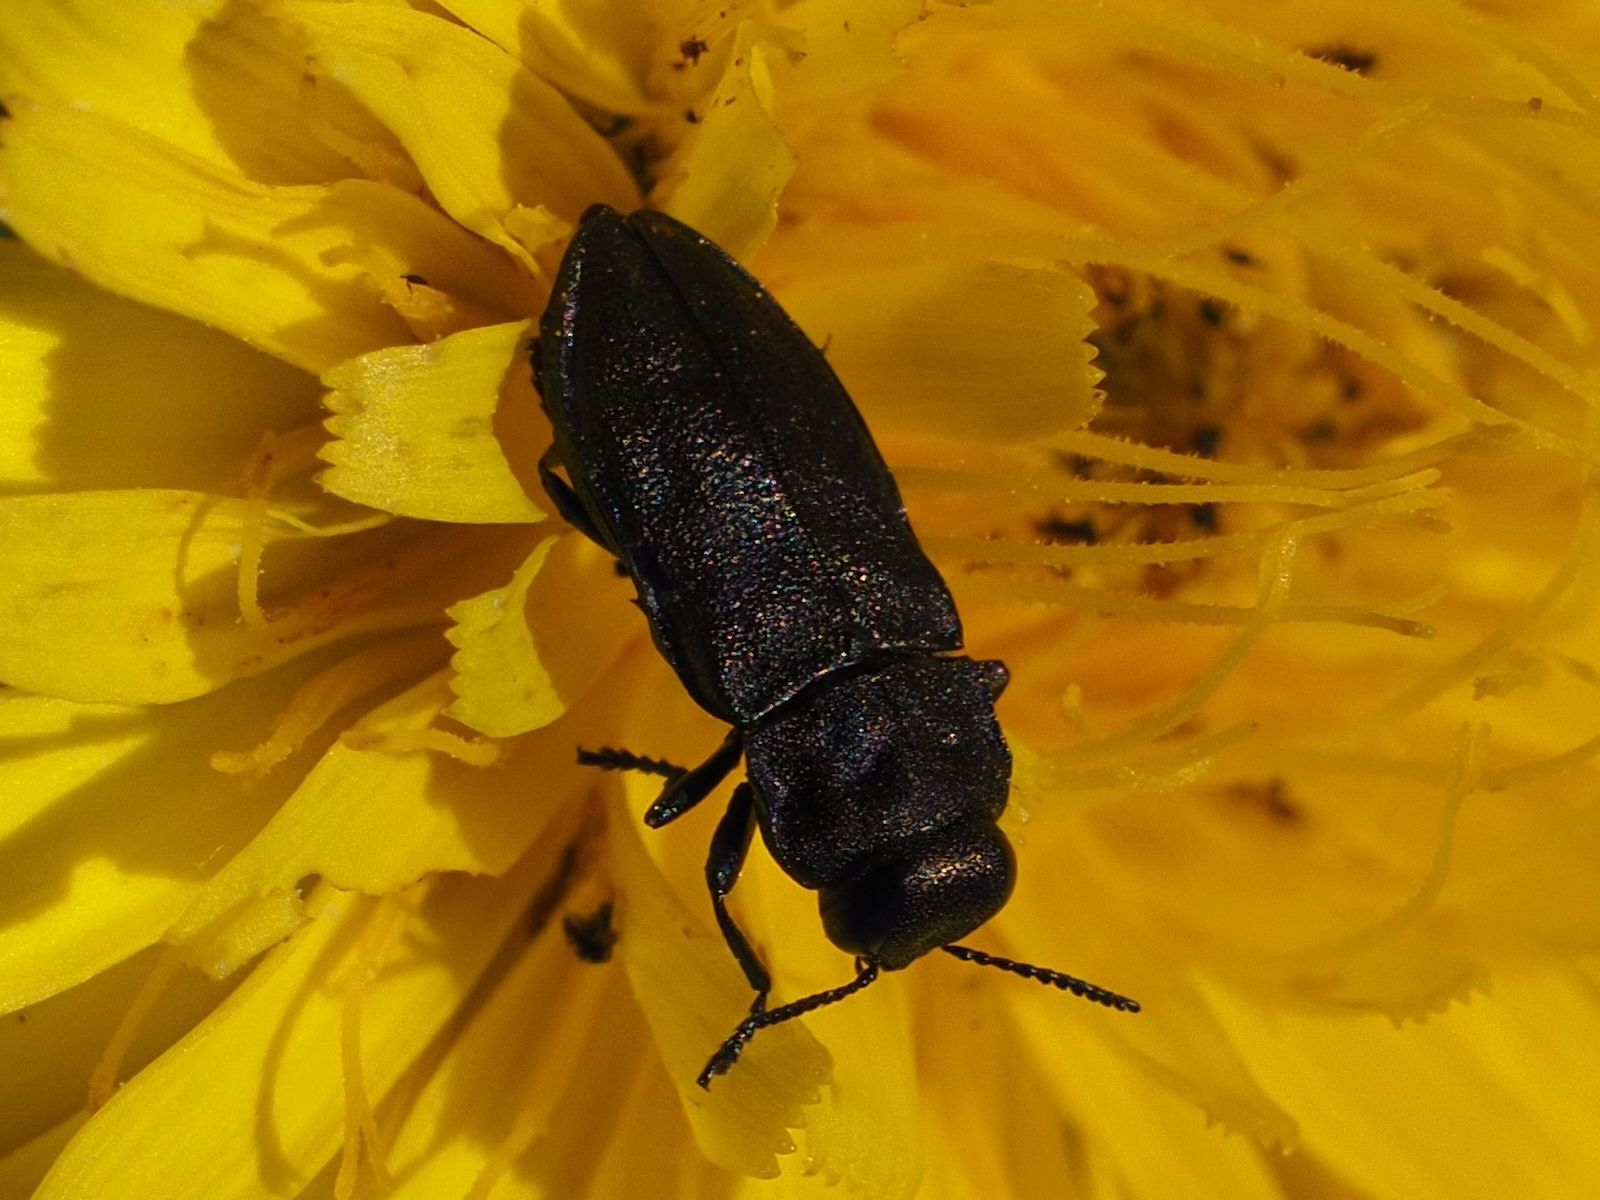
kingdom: Animalia
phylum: Arthropoda
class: Insecta
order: Coleoptera
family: Buprestidae
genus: Anthaxia
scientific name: Anthaxia quadripunctata
